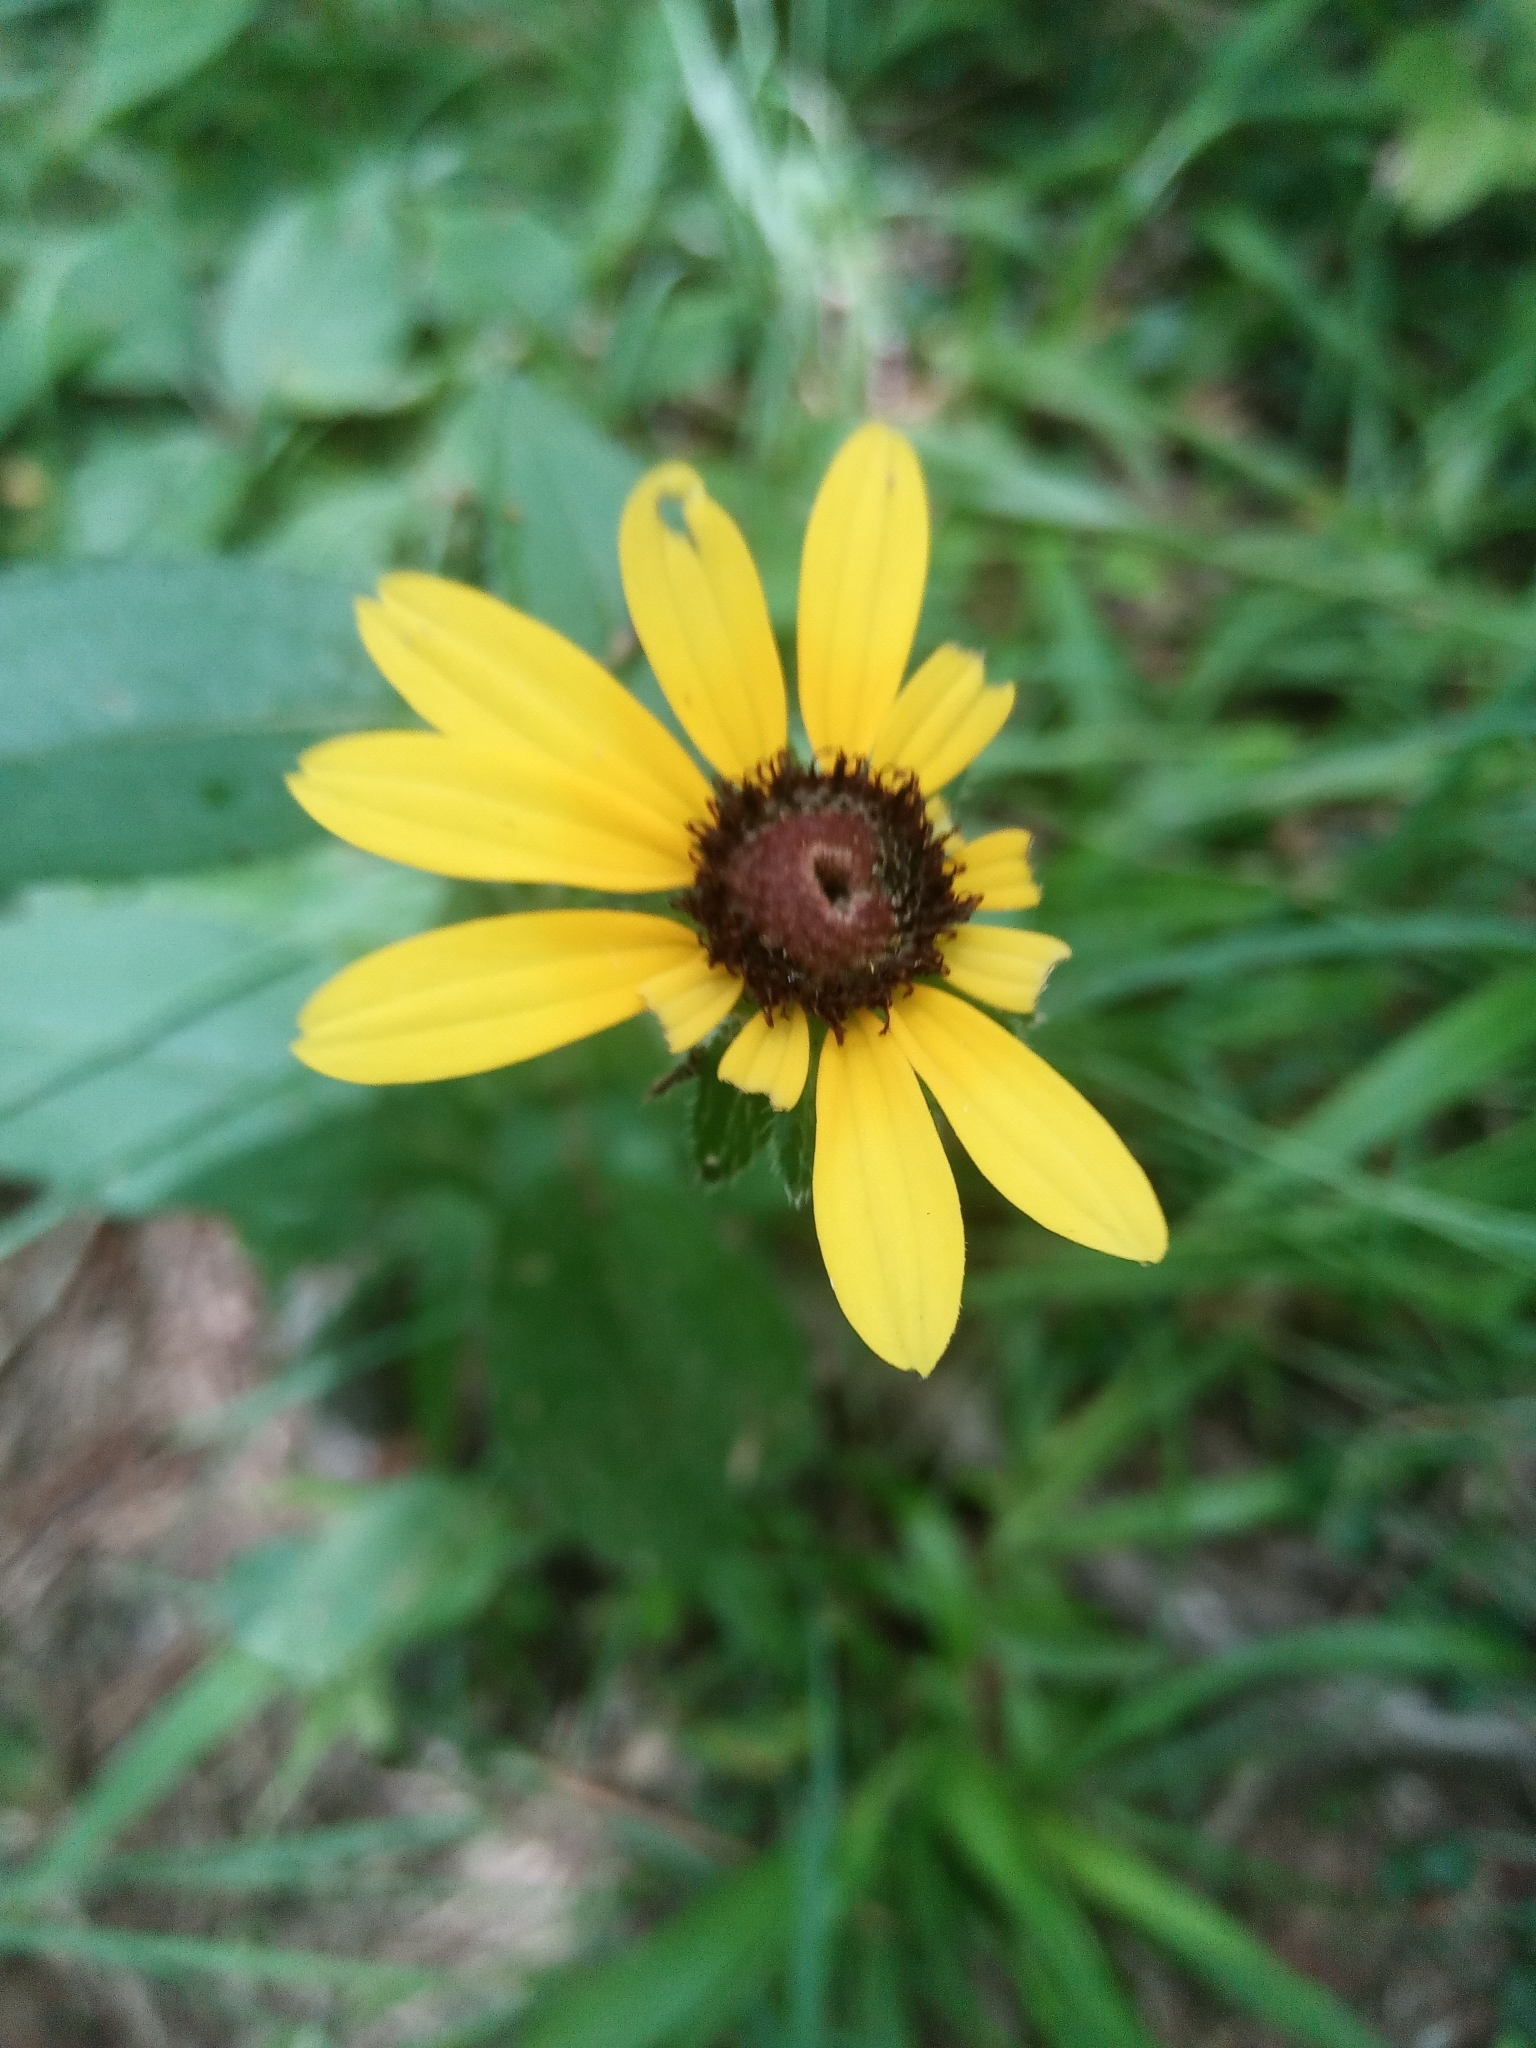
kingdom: Plantae
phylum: Tracheophyta
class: Magnoliopsida
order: Asterales
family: Asteraceae
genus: Rudbeckia
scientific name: Rudbeckia hirta
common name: Black-eyed-susan
